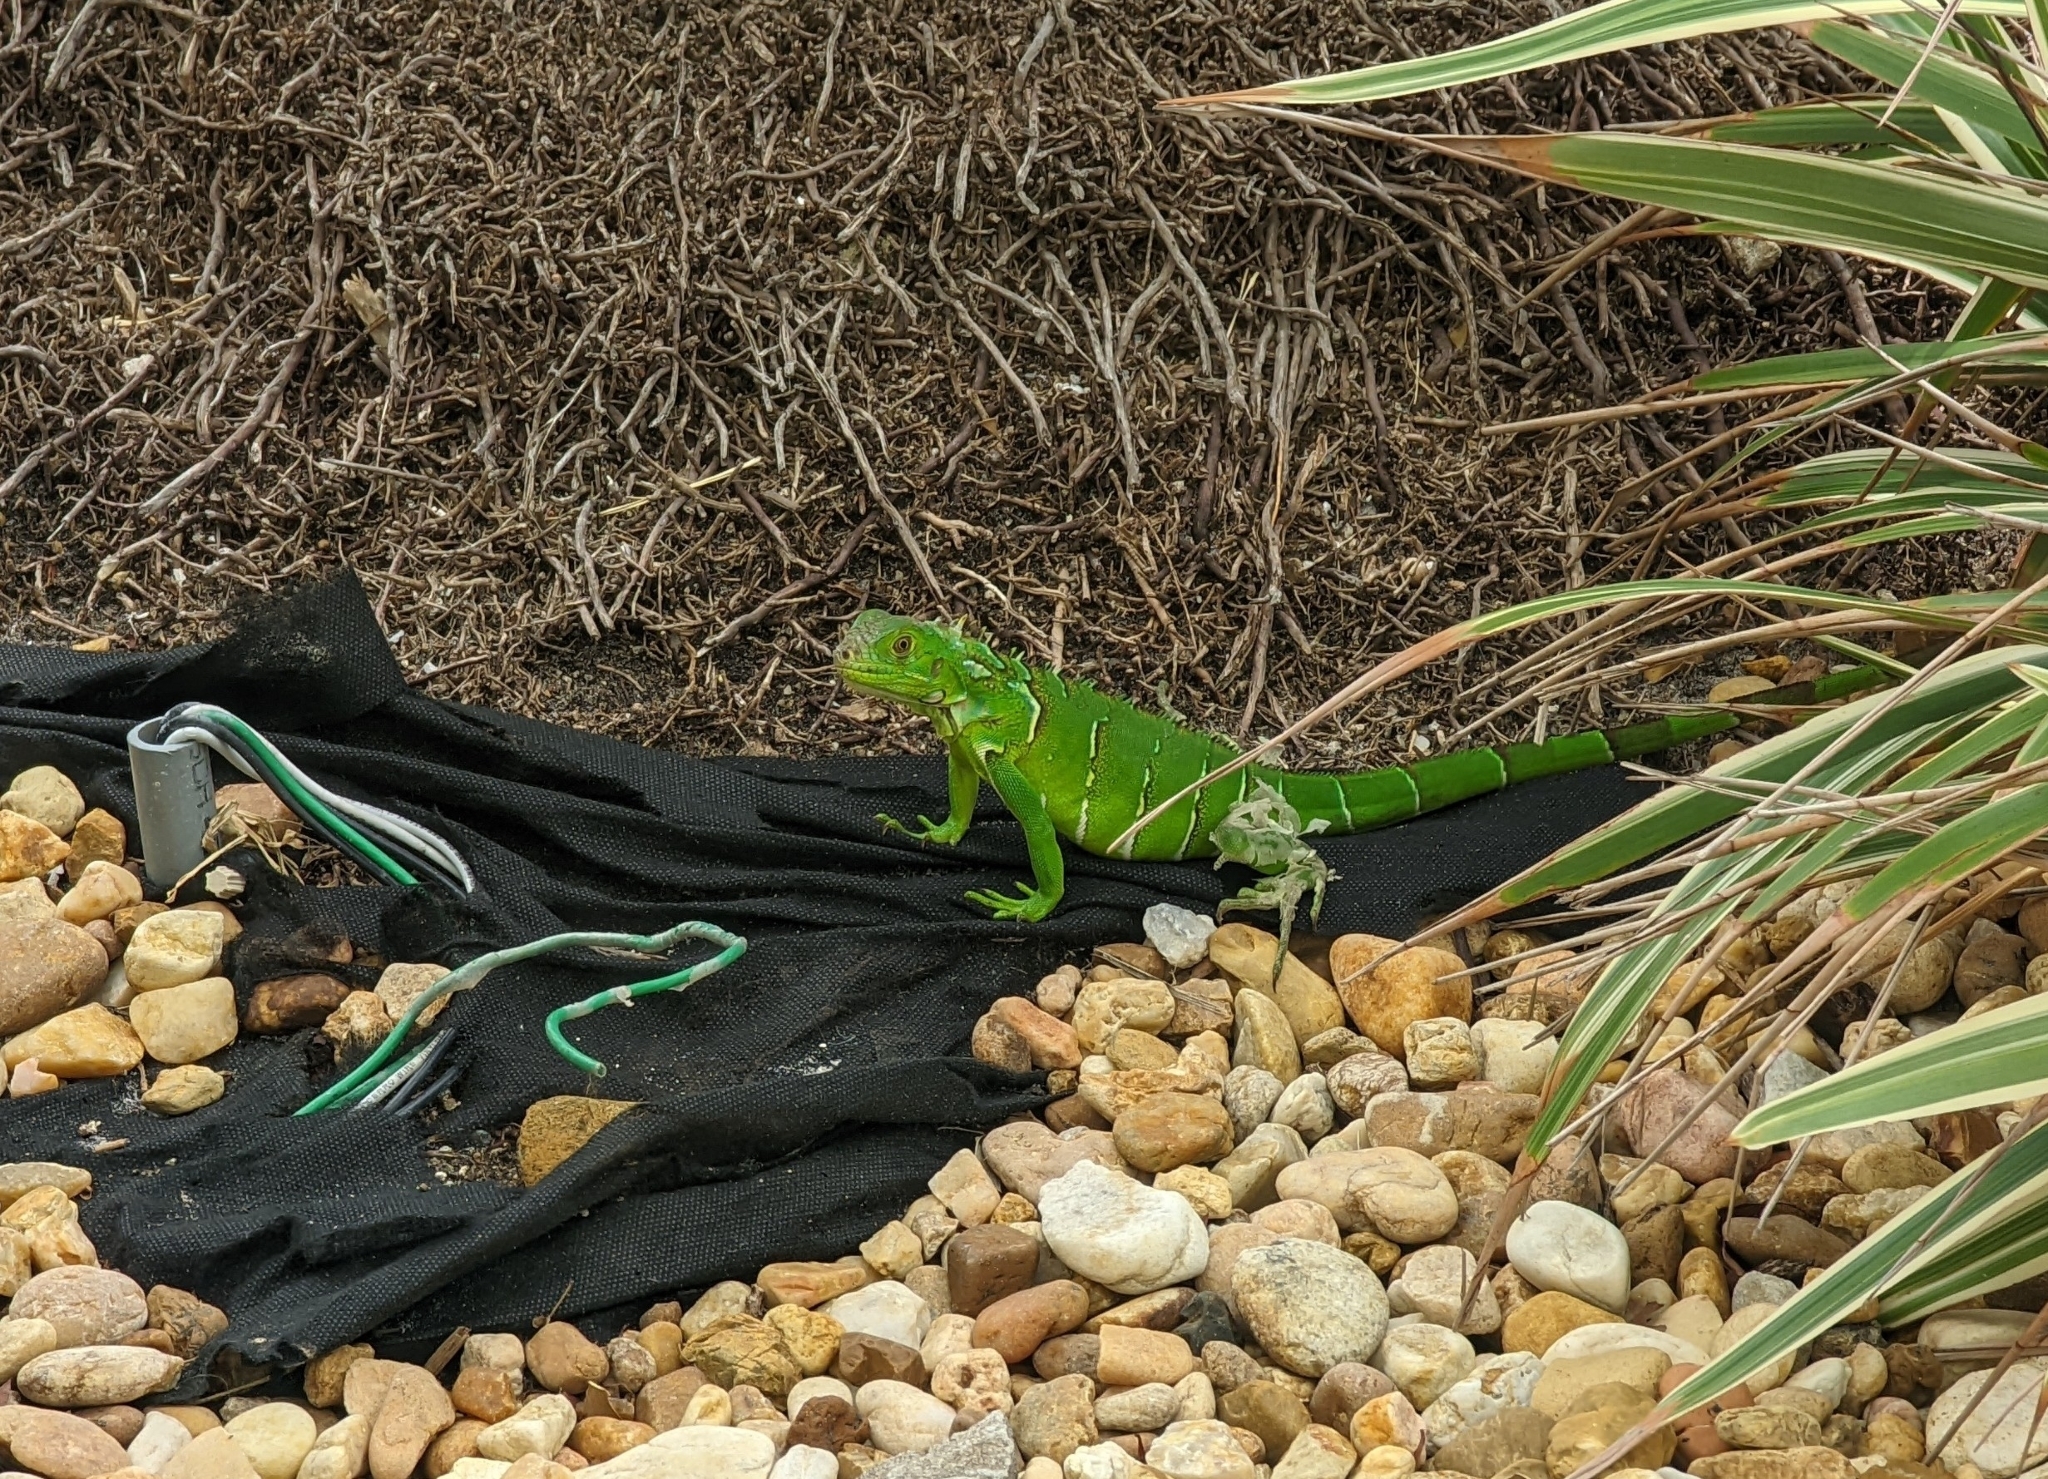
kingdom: Animalia
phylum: Chordata
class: Squamata
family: Iguanidae
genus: Iguana
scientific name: Iguana iguana
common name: Green iguana
